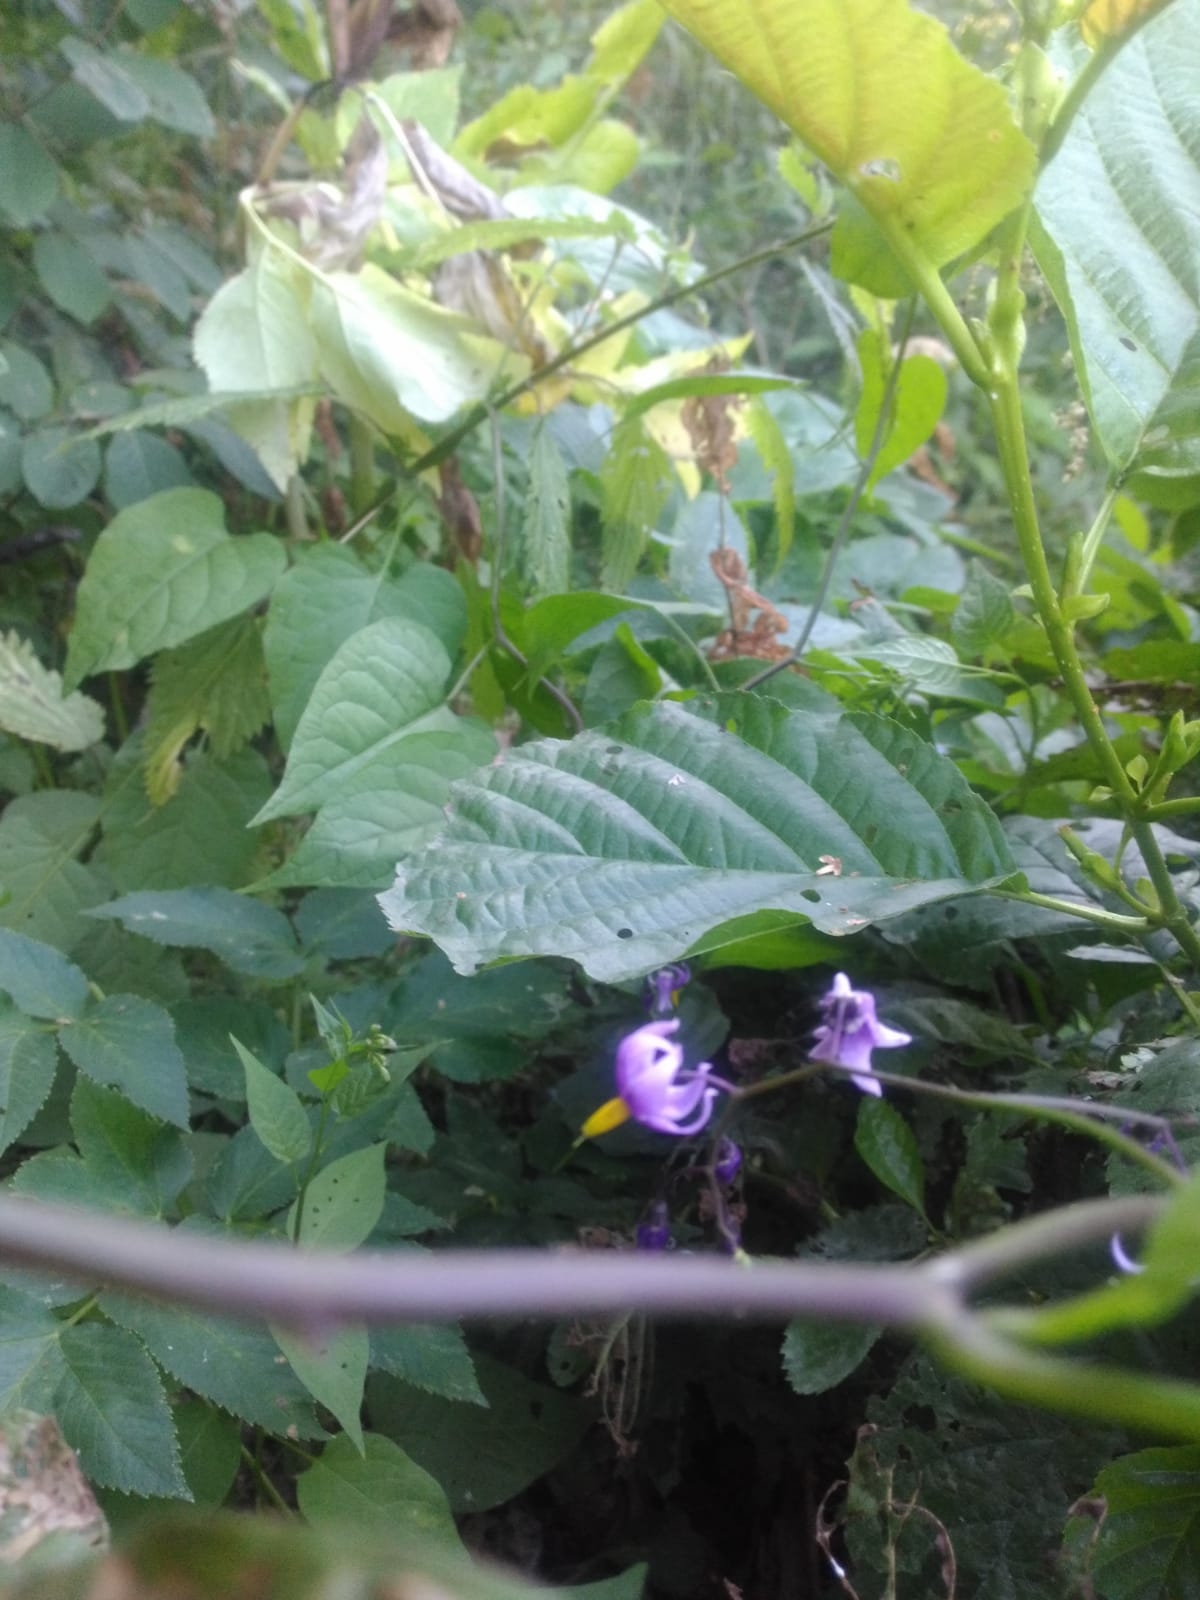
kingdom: Plantae
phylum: Tracheophyta
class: Magnoliopsida
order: Solanales
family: Solanaceae
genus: Solanum
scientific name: Solanum dulcamara
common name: Climbing nightshade
